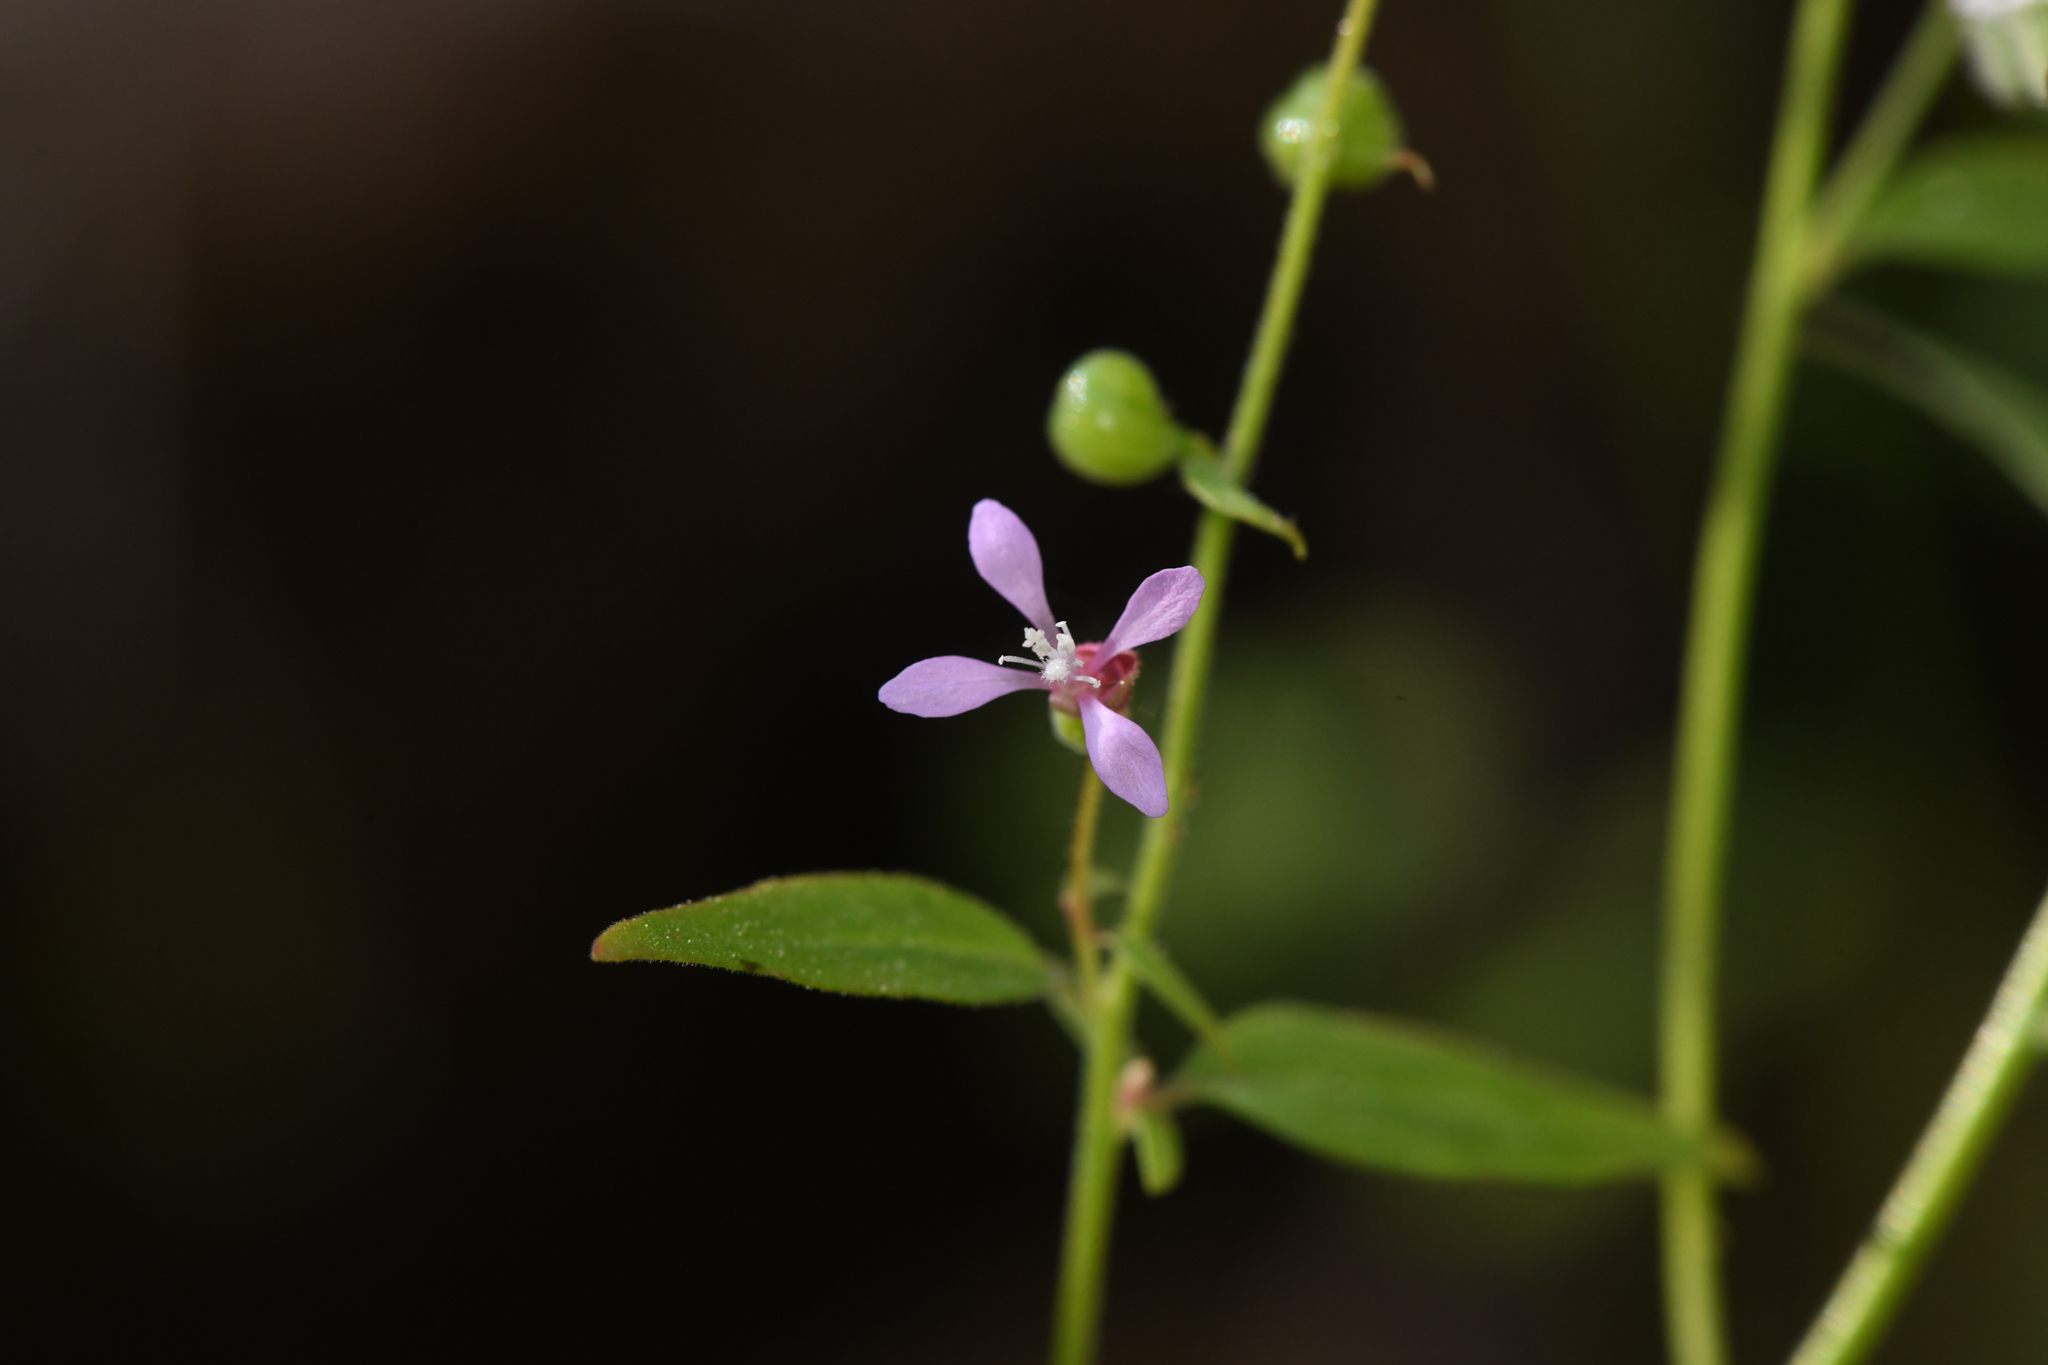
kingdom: Plantae
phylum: Tracheophyta
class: Magnoliopsida
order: Myrtales
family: Onagraceae
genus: Clarkia
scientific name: Clarkia heterandra
